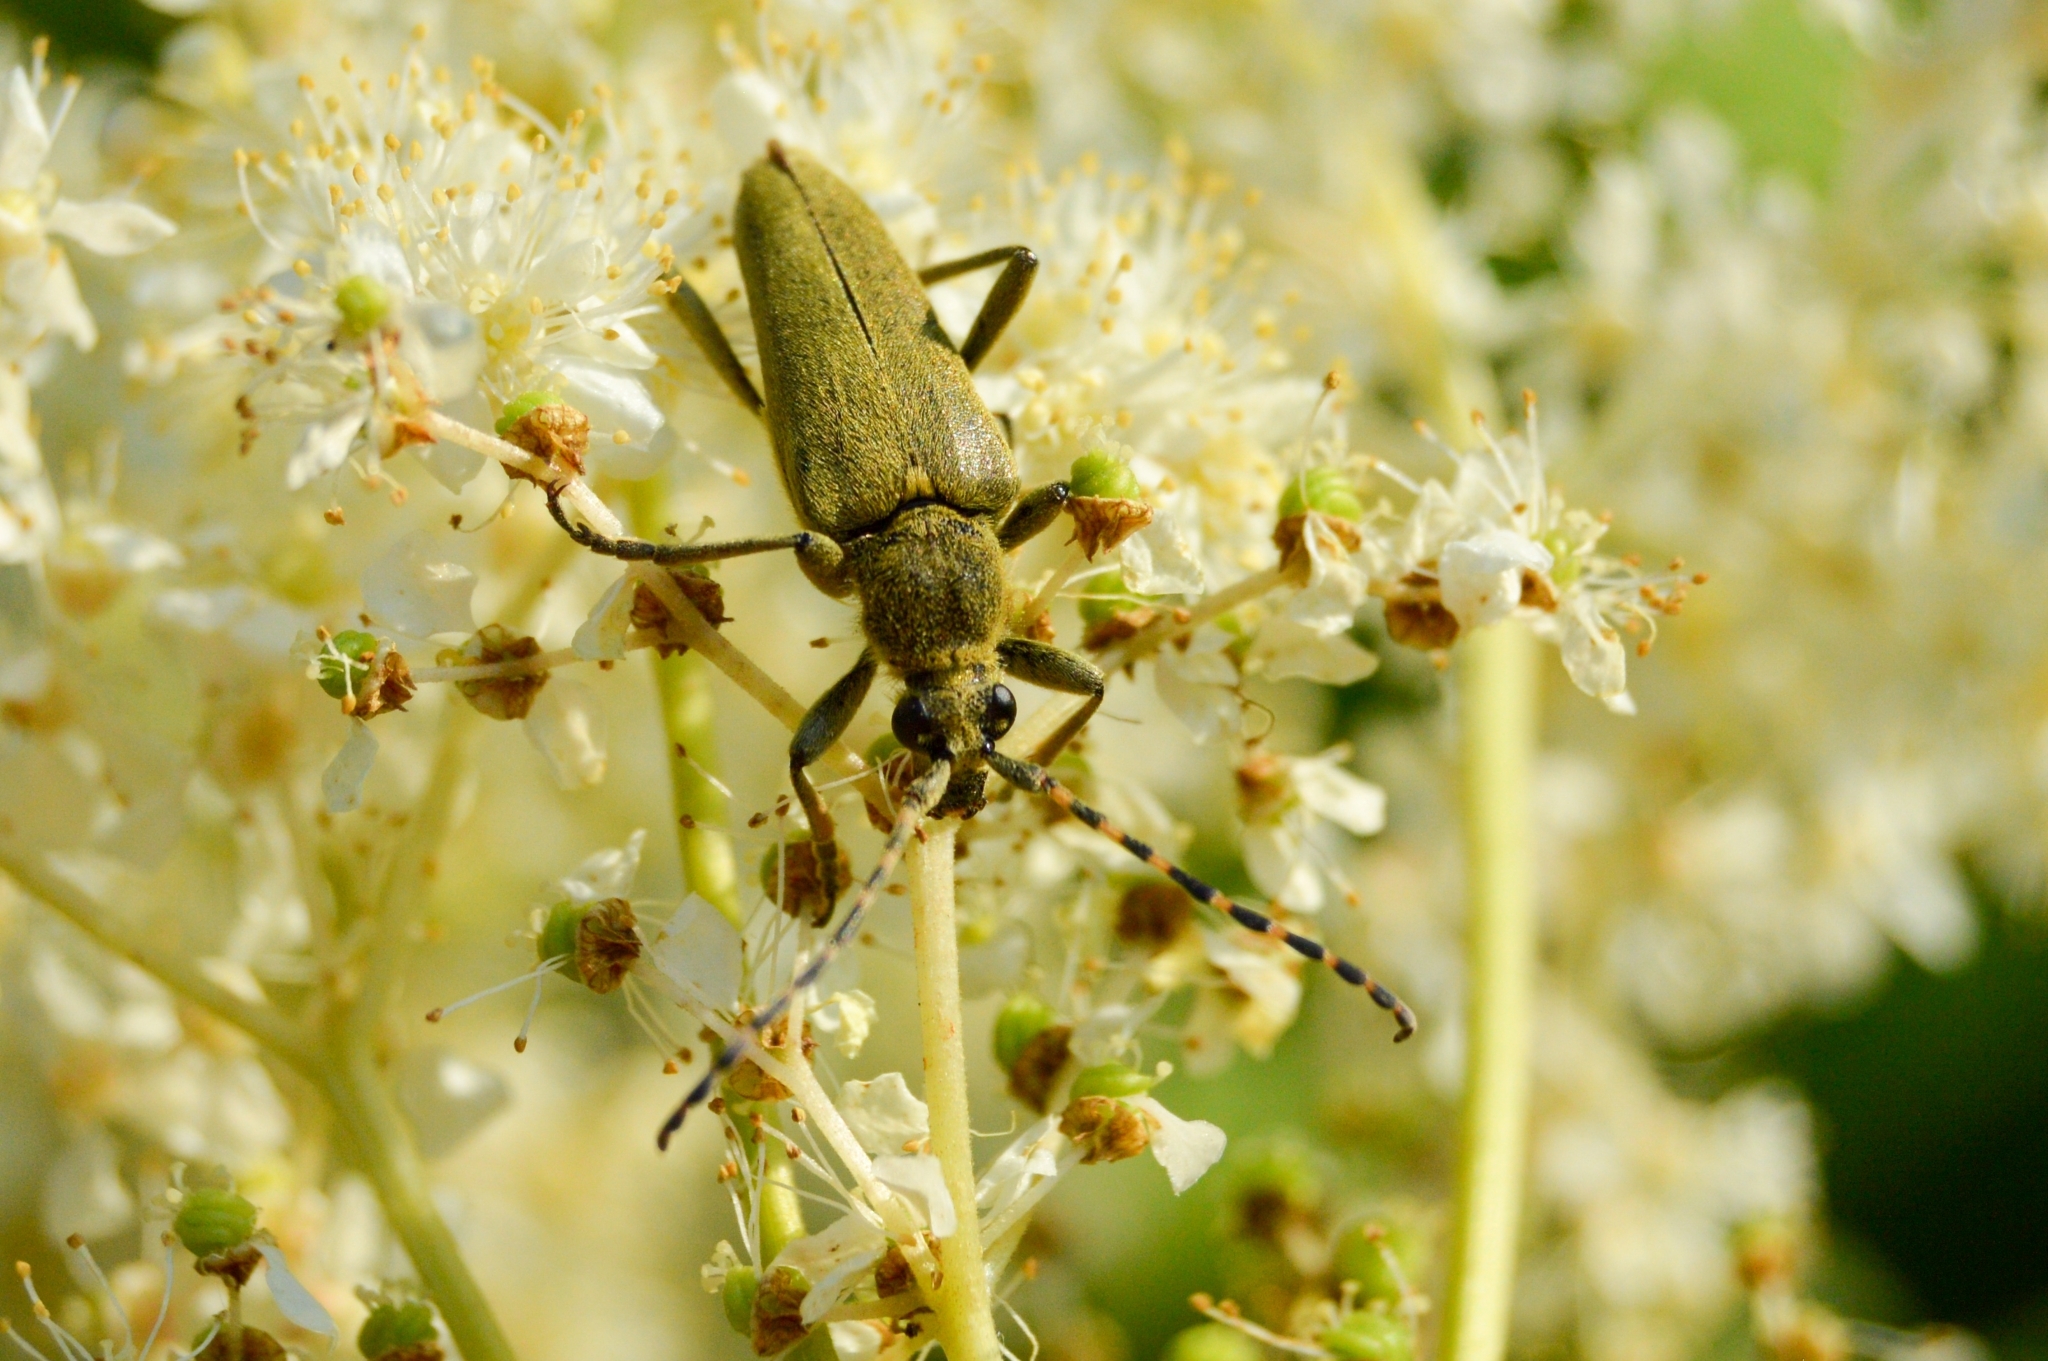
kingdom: Animalia
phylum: Arthropoda
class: Insecta
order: Coleoptera
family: Cerambycidae
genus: Lepturobosca
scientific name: Lepturobosca virens
